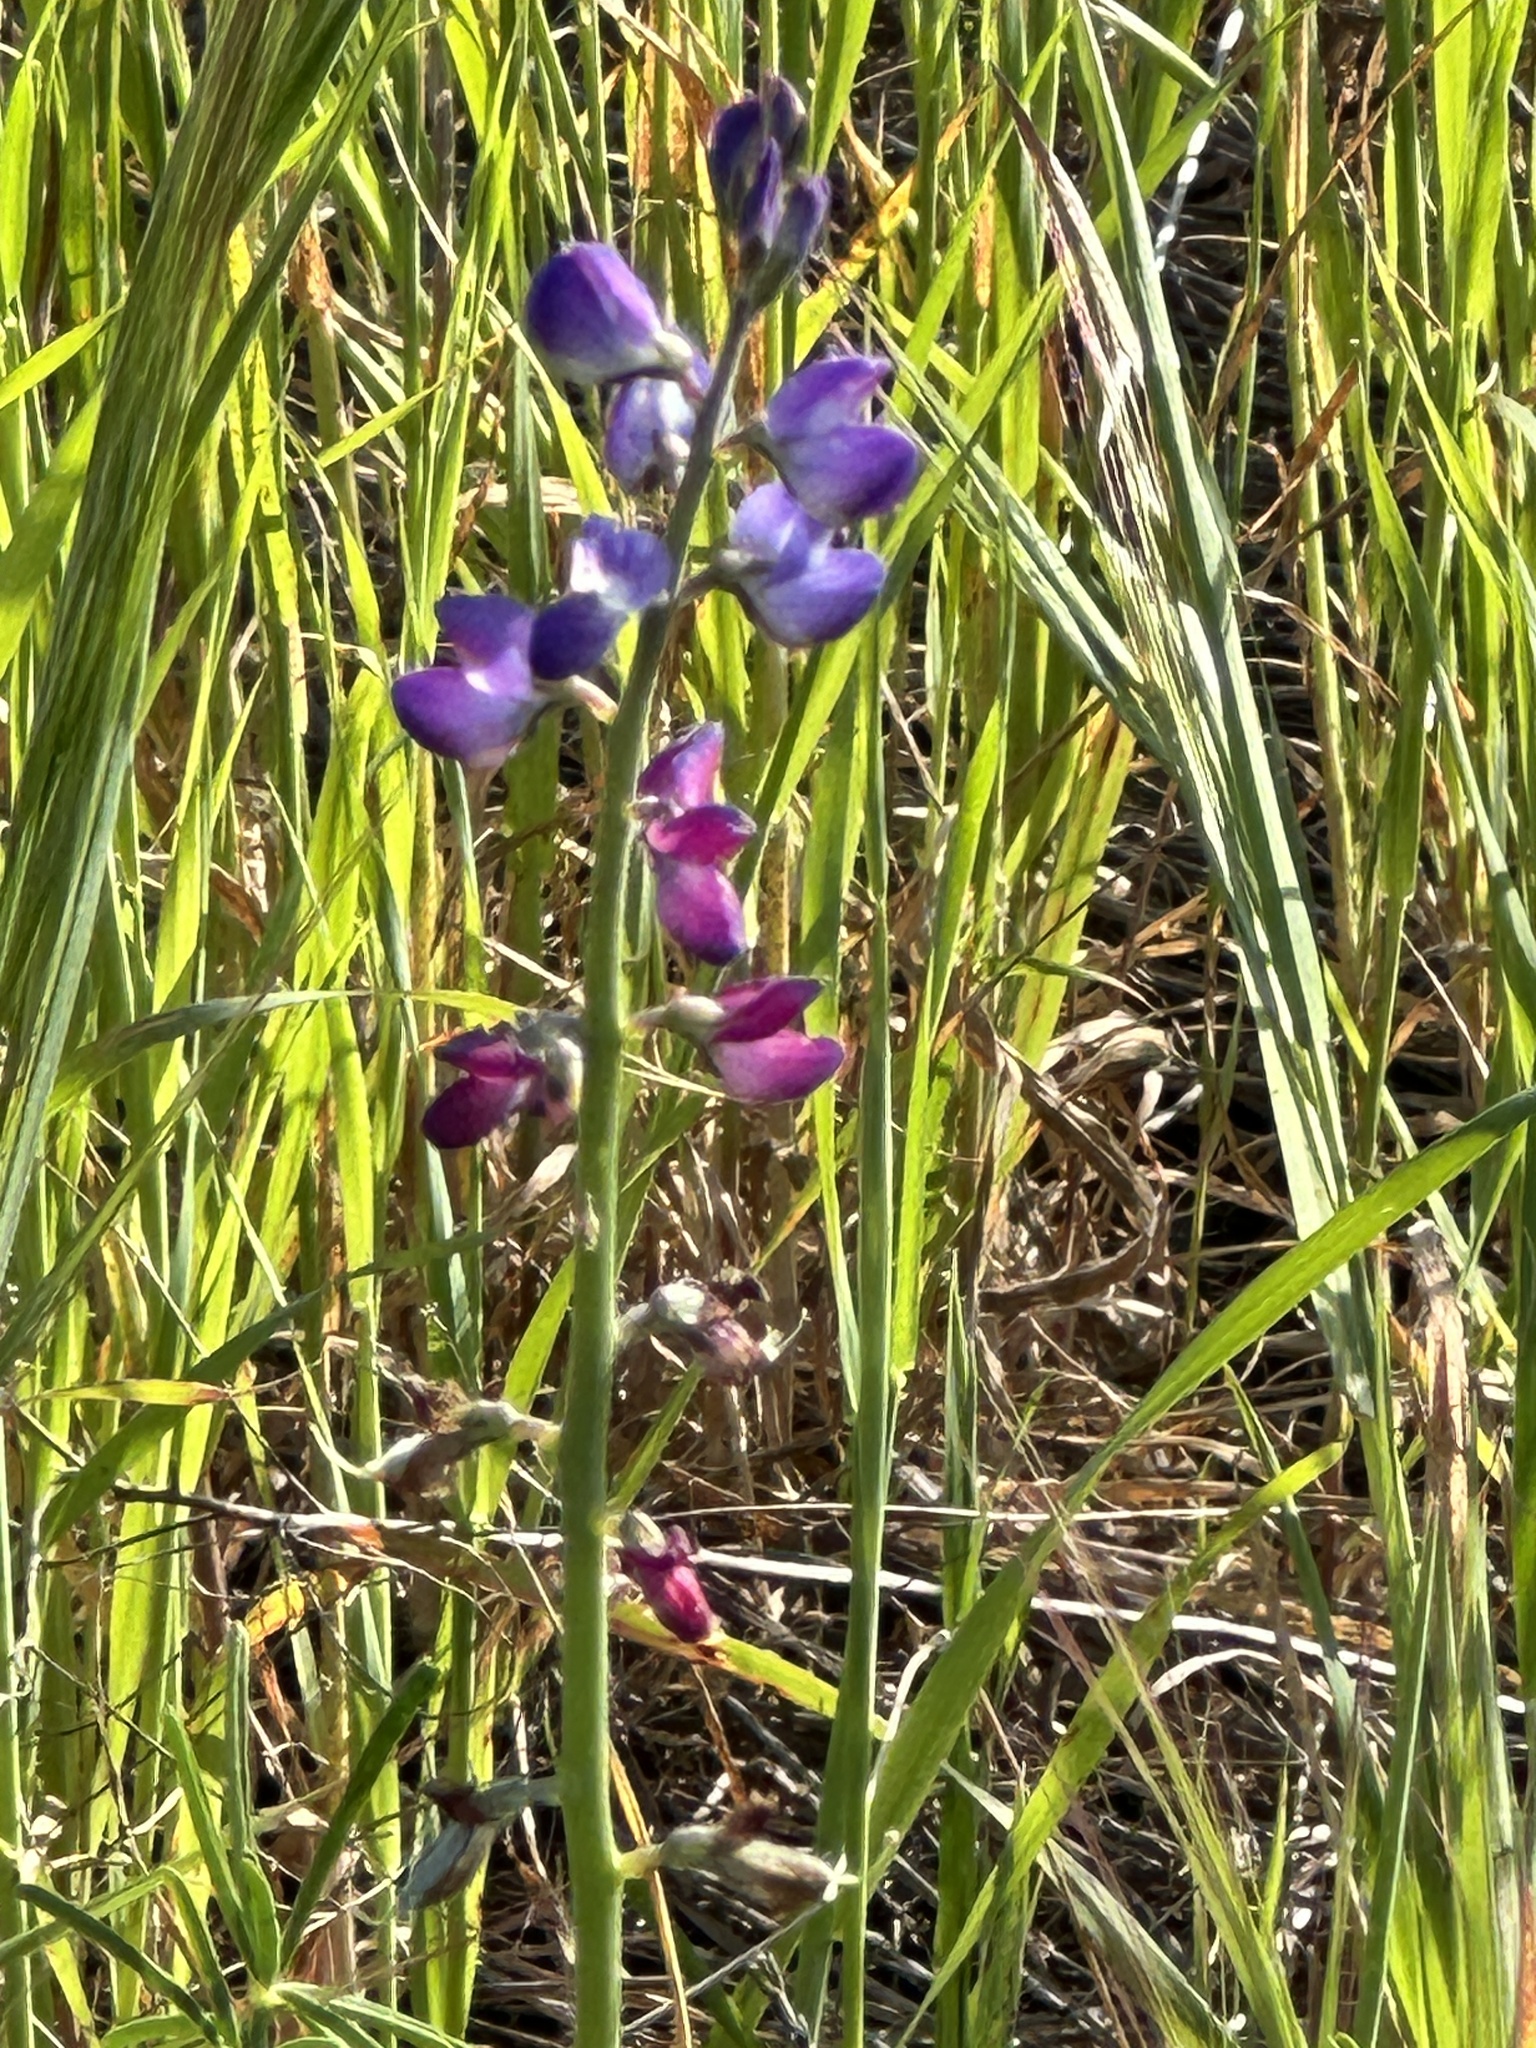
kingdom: Plantae
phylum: Tracheophyta
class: Magnoliopsida
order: Fabales
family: Fabaceae
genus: Lupinus
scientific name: Lupinus truncatus
